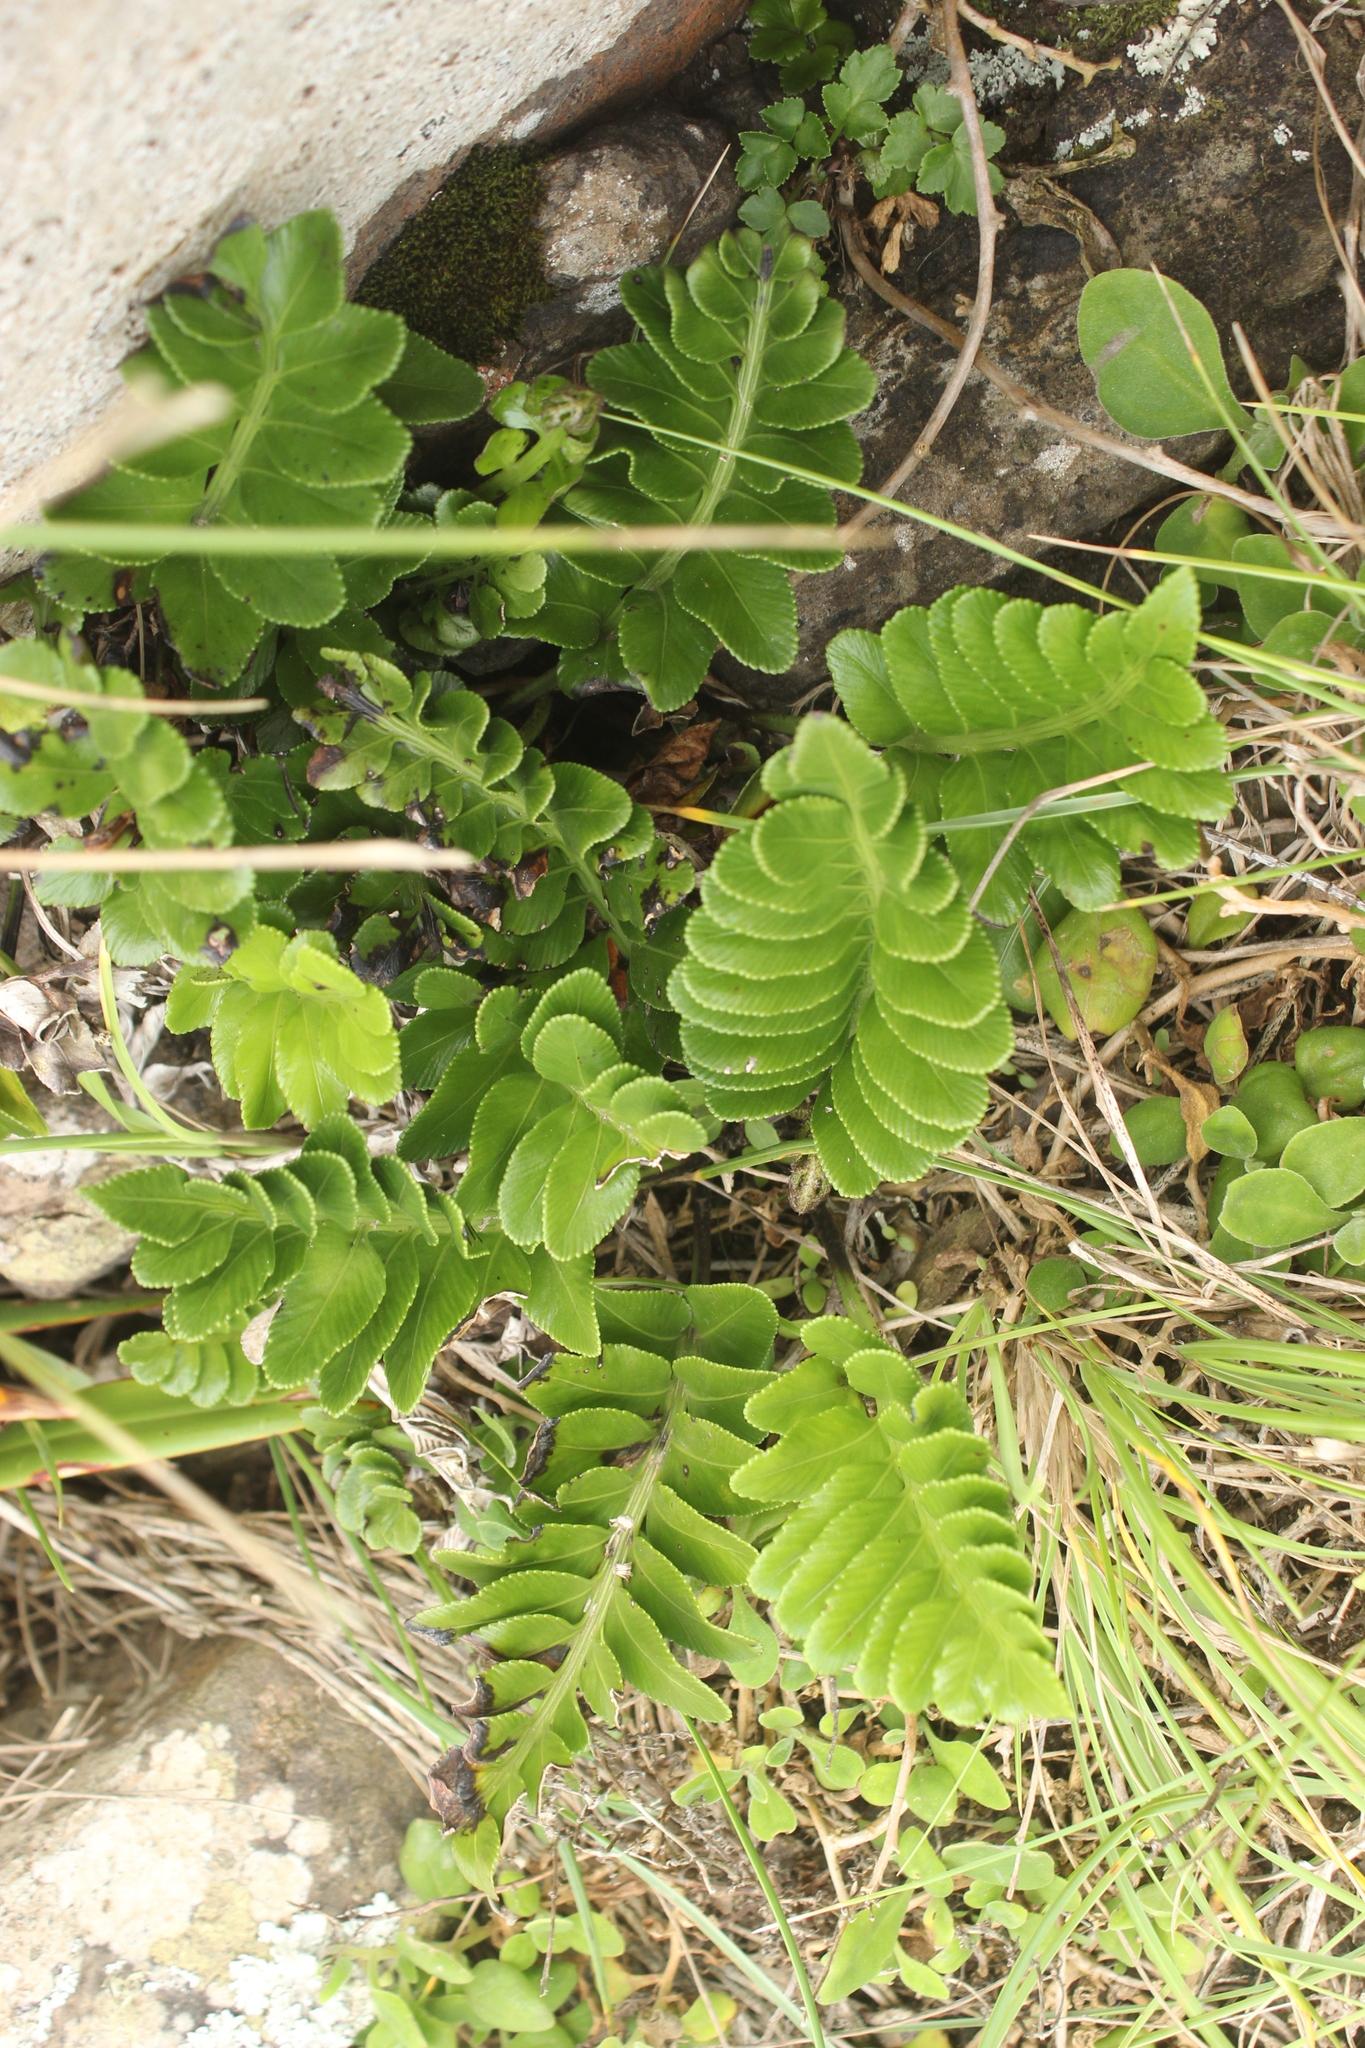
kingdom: Plantae
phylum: Tracheophyta
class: Polypodiopsida
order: Polypodiales
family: Aspleniaceae
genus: Asplenium
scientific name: Asplenium obtusatum
